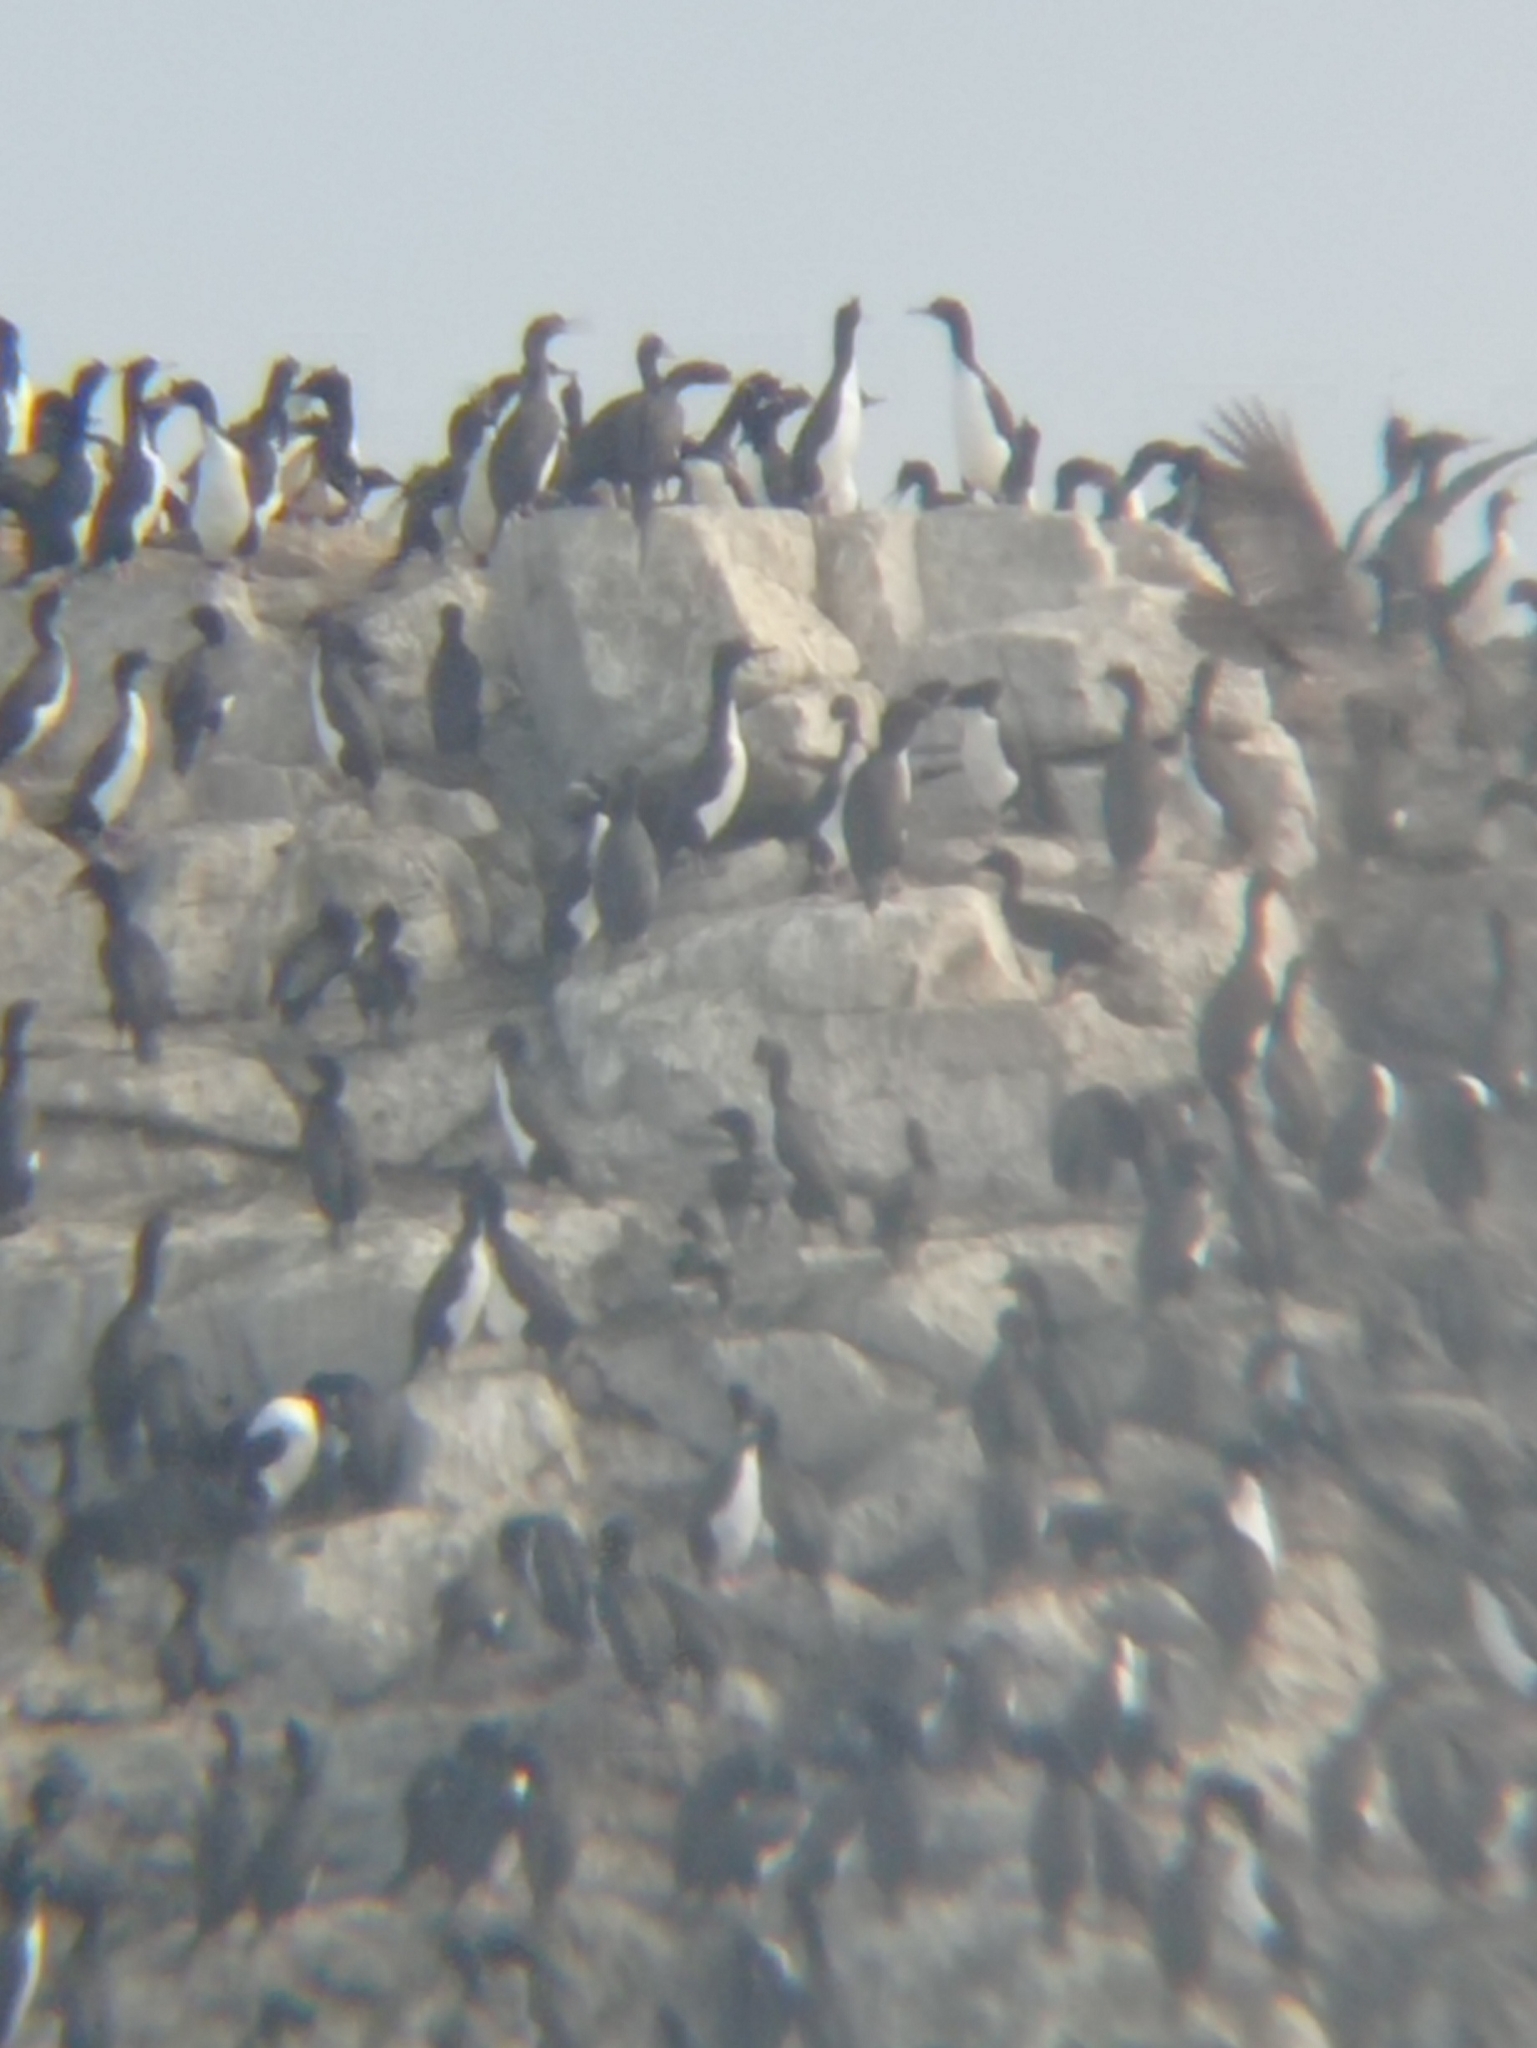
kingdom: Animalia
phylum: Chordata
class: Aves
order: Suliformes
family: Phalacrocoracidae
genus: Leucocarbo
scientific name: Leucocarbo bougainvillii
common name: Guanay cormorant
